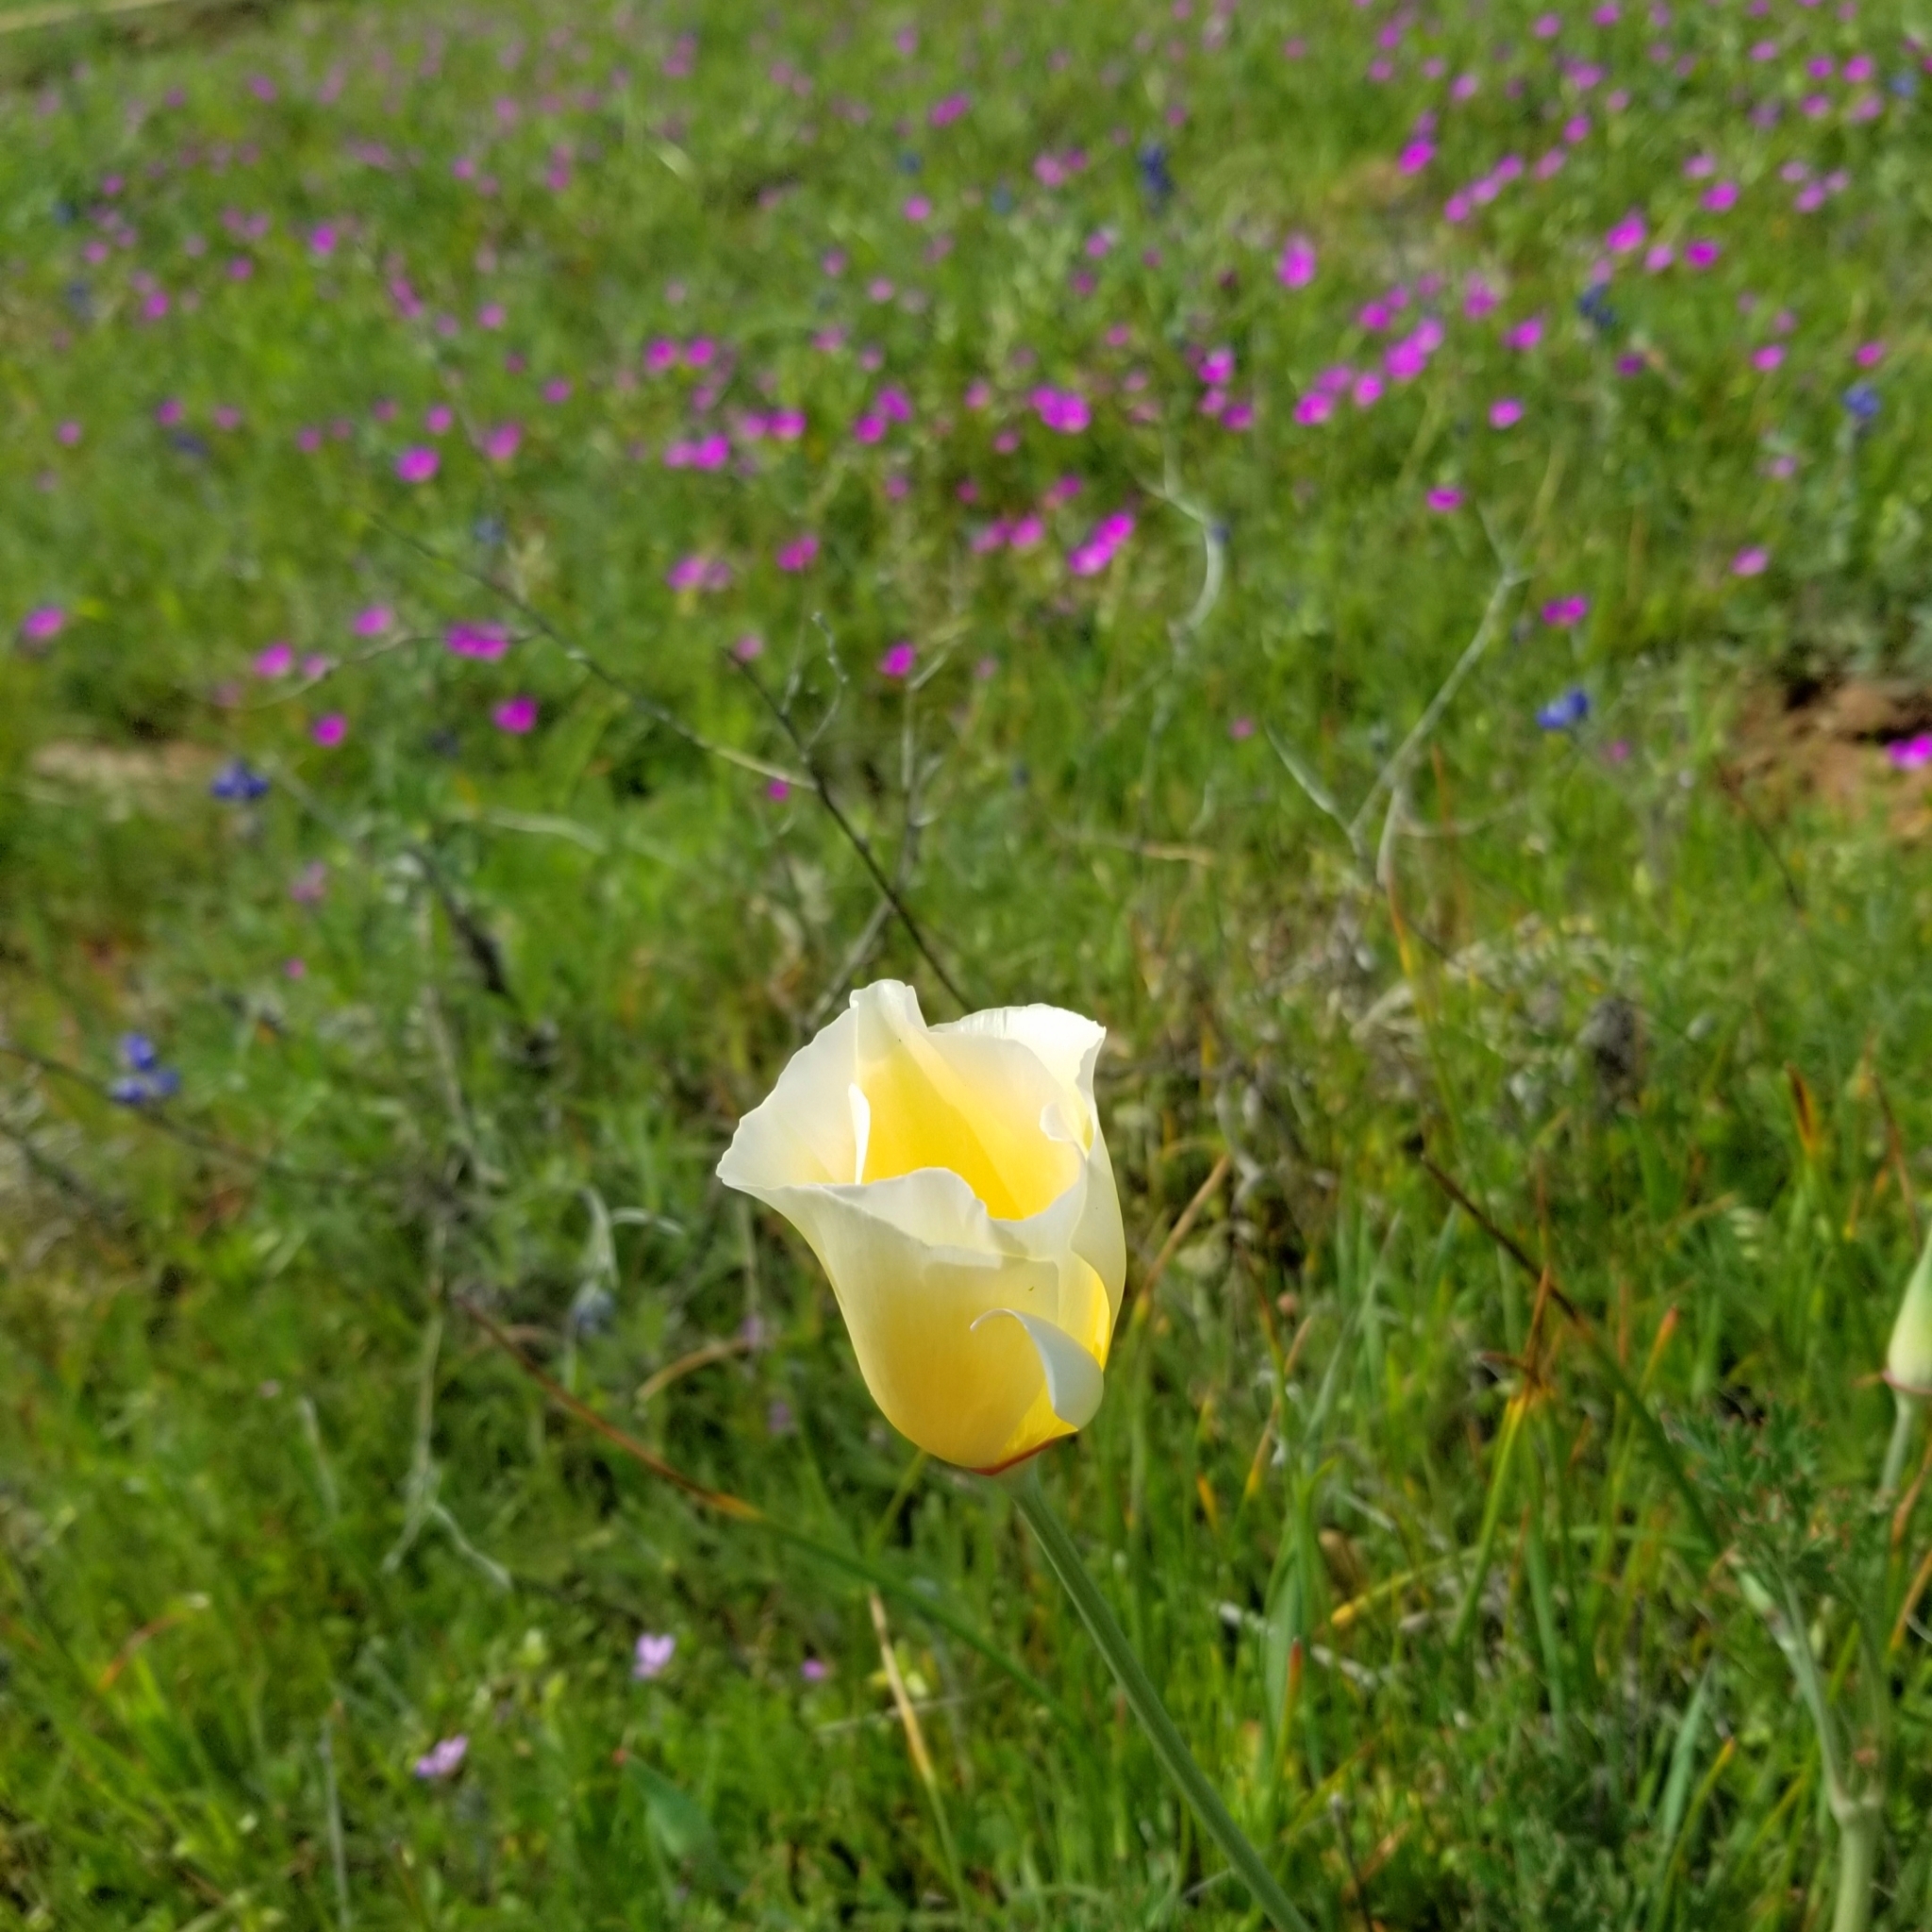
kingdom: Plantae
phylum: Tracheophyta
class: Magnoliopsida
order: Ranunculales
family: Papaveraceae
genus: Eschscholzia
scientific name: Eschscholzia californica
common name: California poppy
